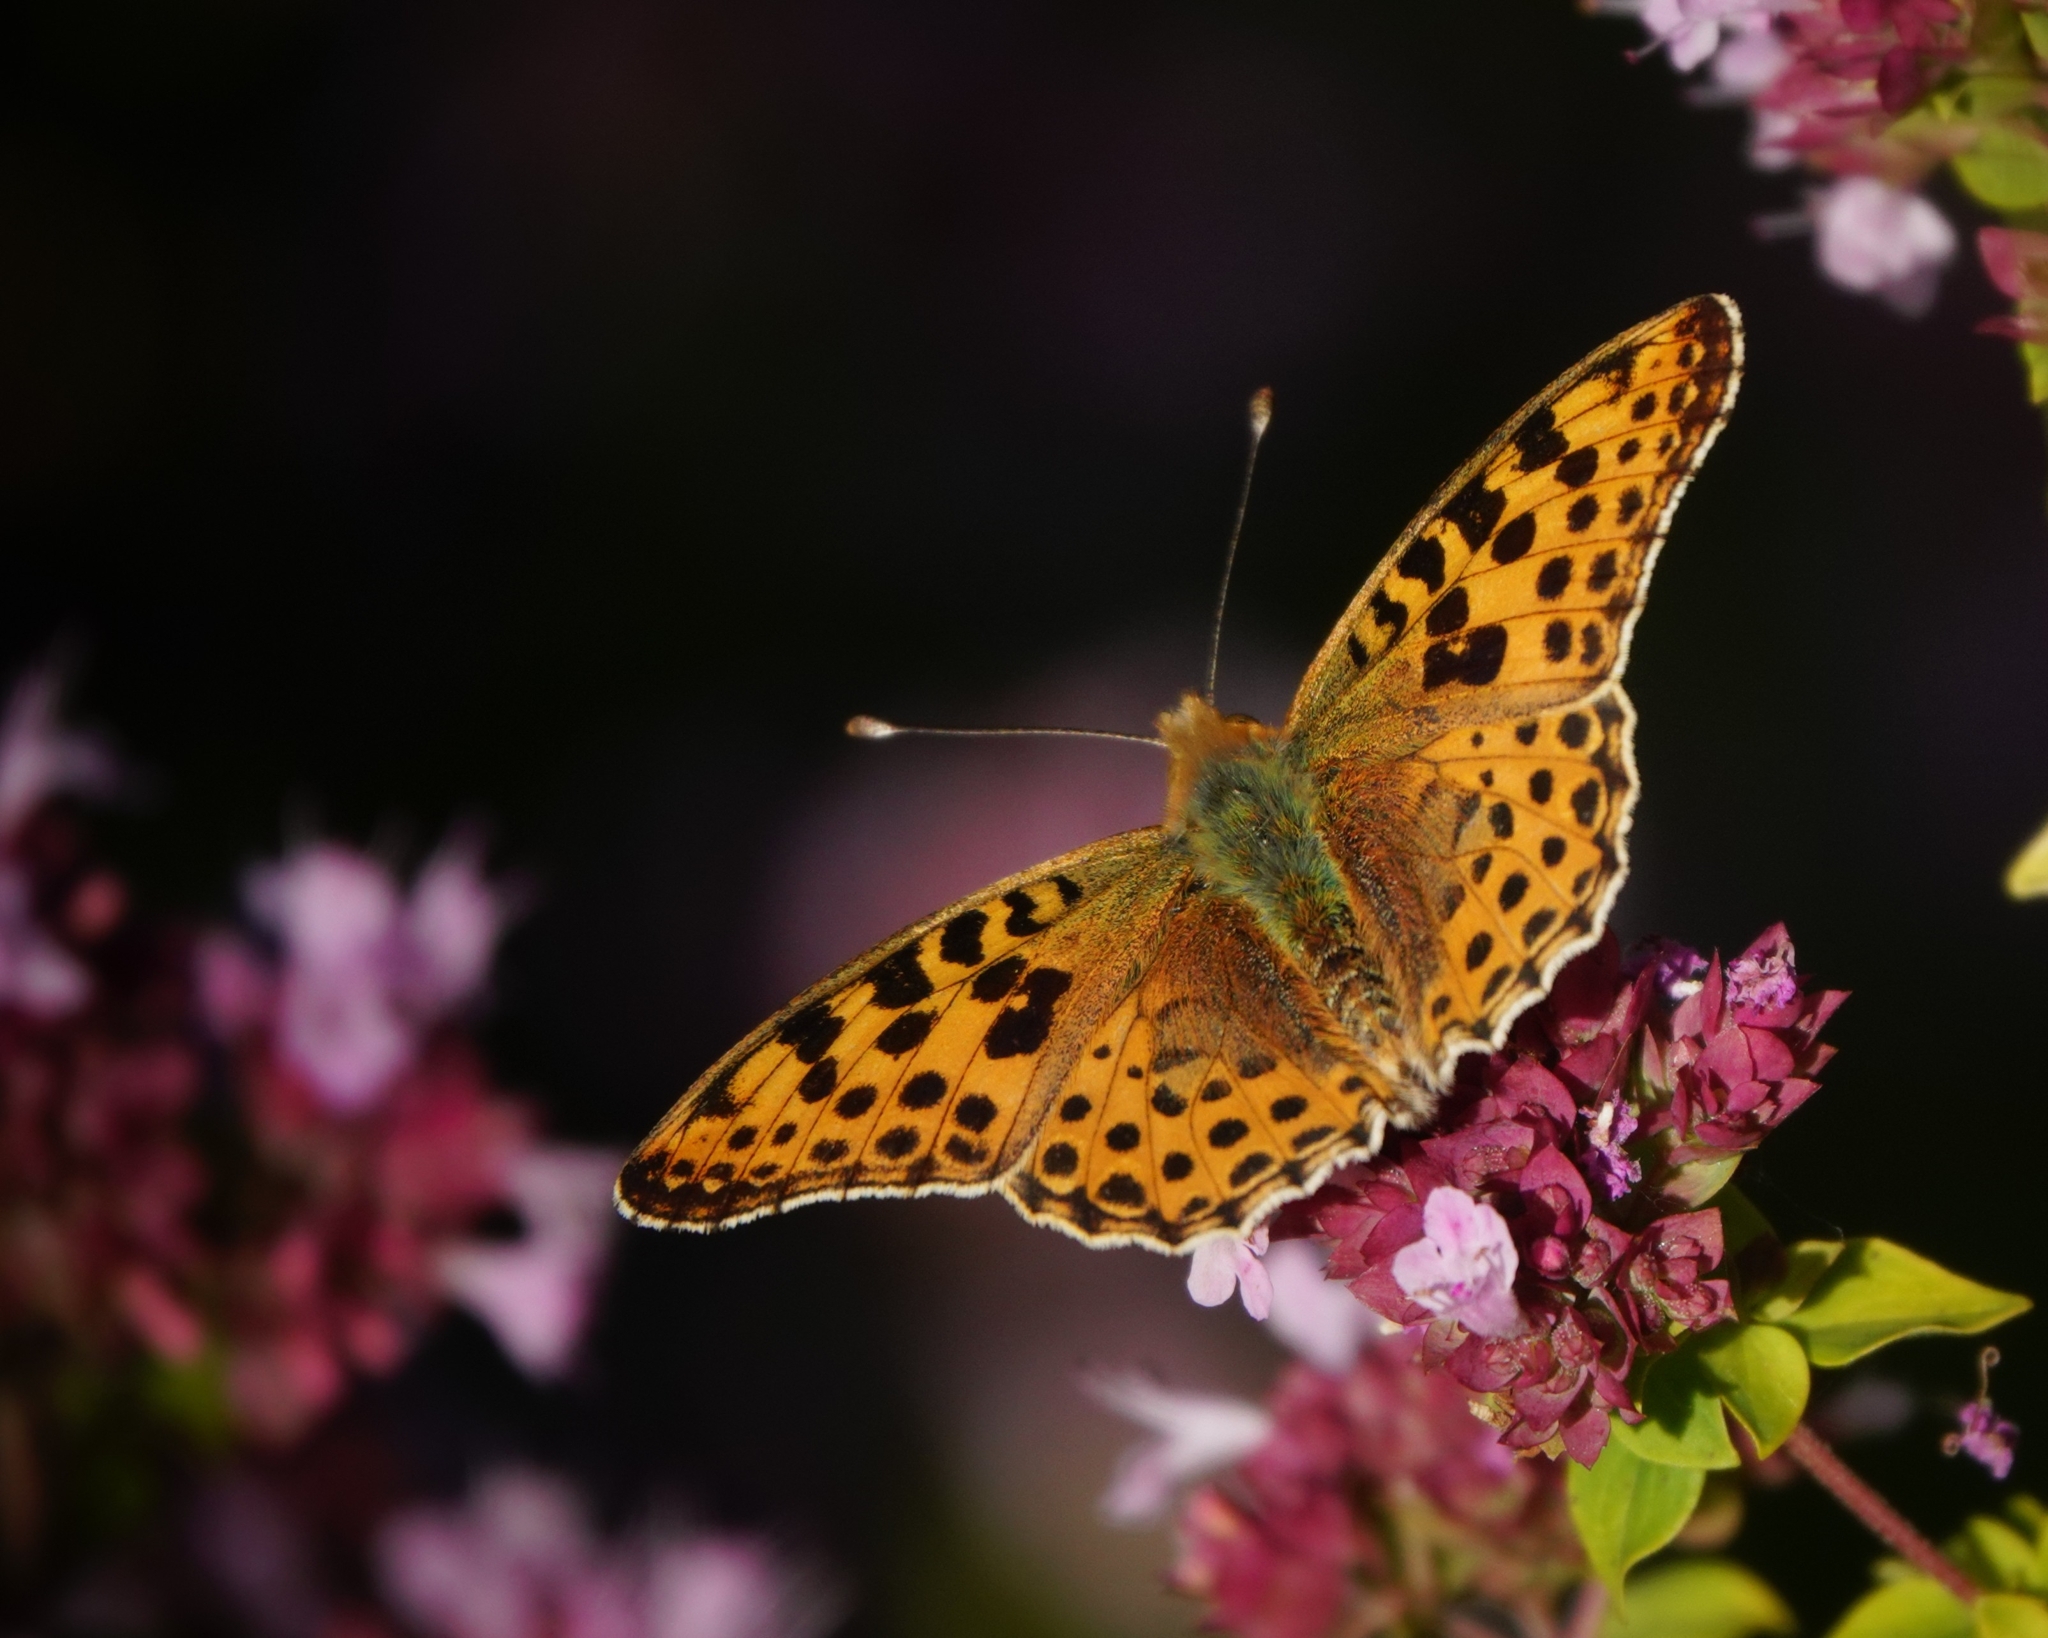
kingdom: Animalia
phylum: Arthropoda
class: Insecta
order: Lepidoptera
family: Nymphalidae
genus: Issoria
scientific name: Issoria lathonia
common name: Queen of spain fritillary
